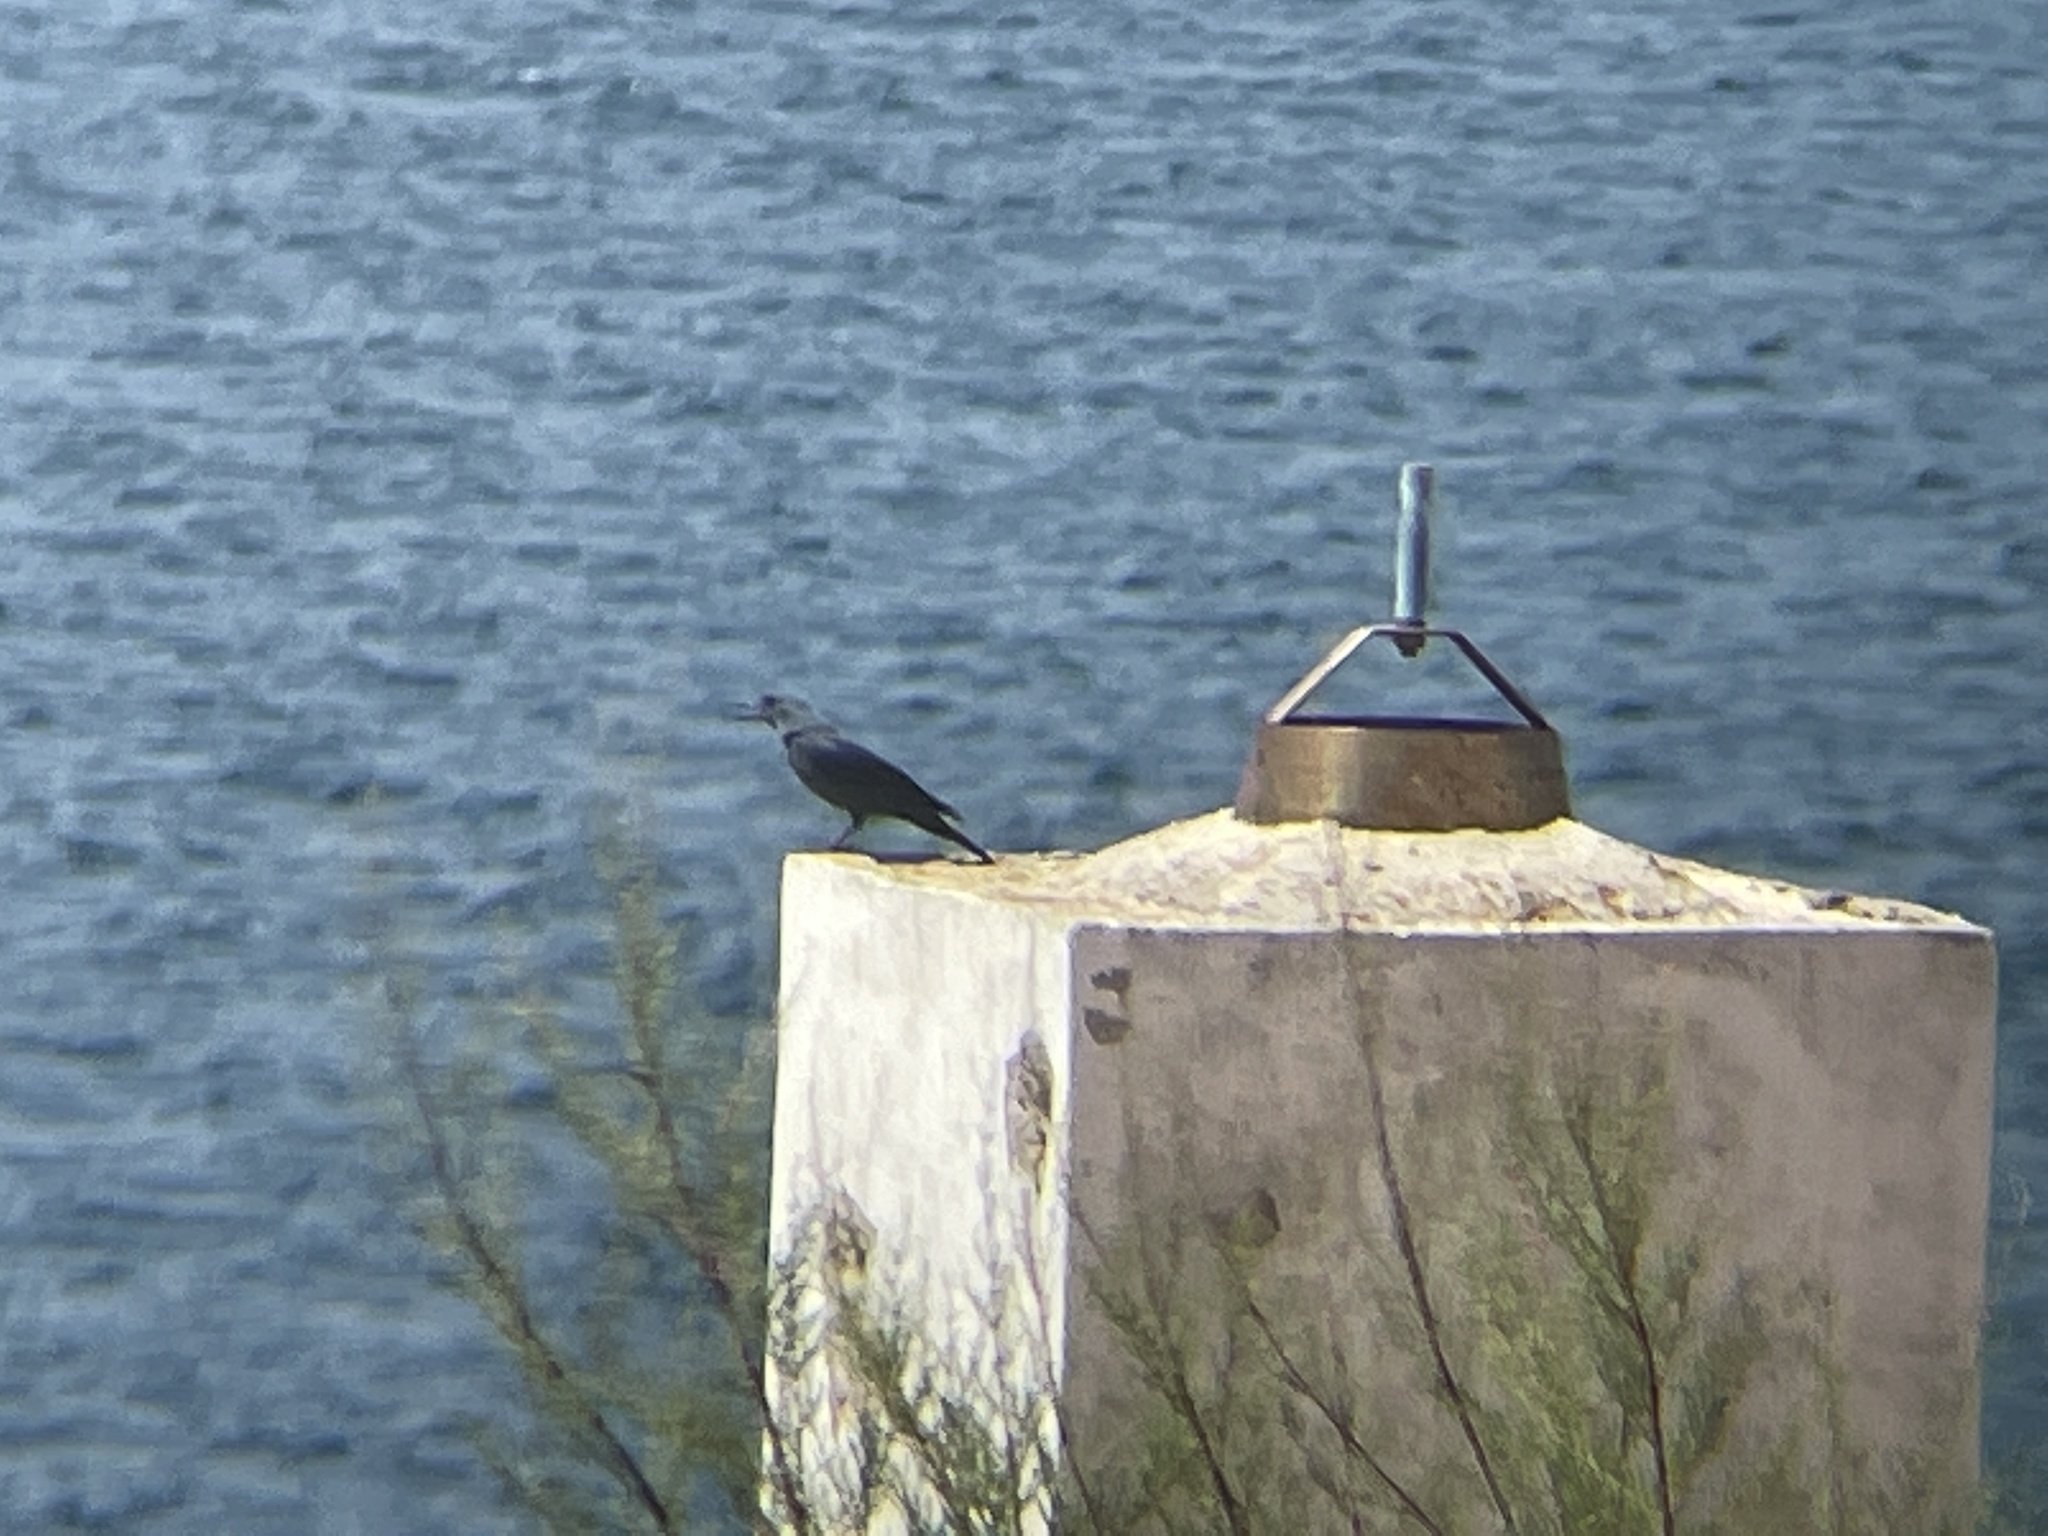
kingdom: Animalia
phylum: Chordata
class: Aves
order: Passeriformes
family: Muscicapidae
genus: Monticola
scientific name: Monticola solitarius
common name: Blue rock thrush
